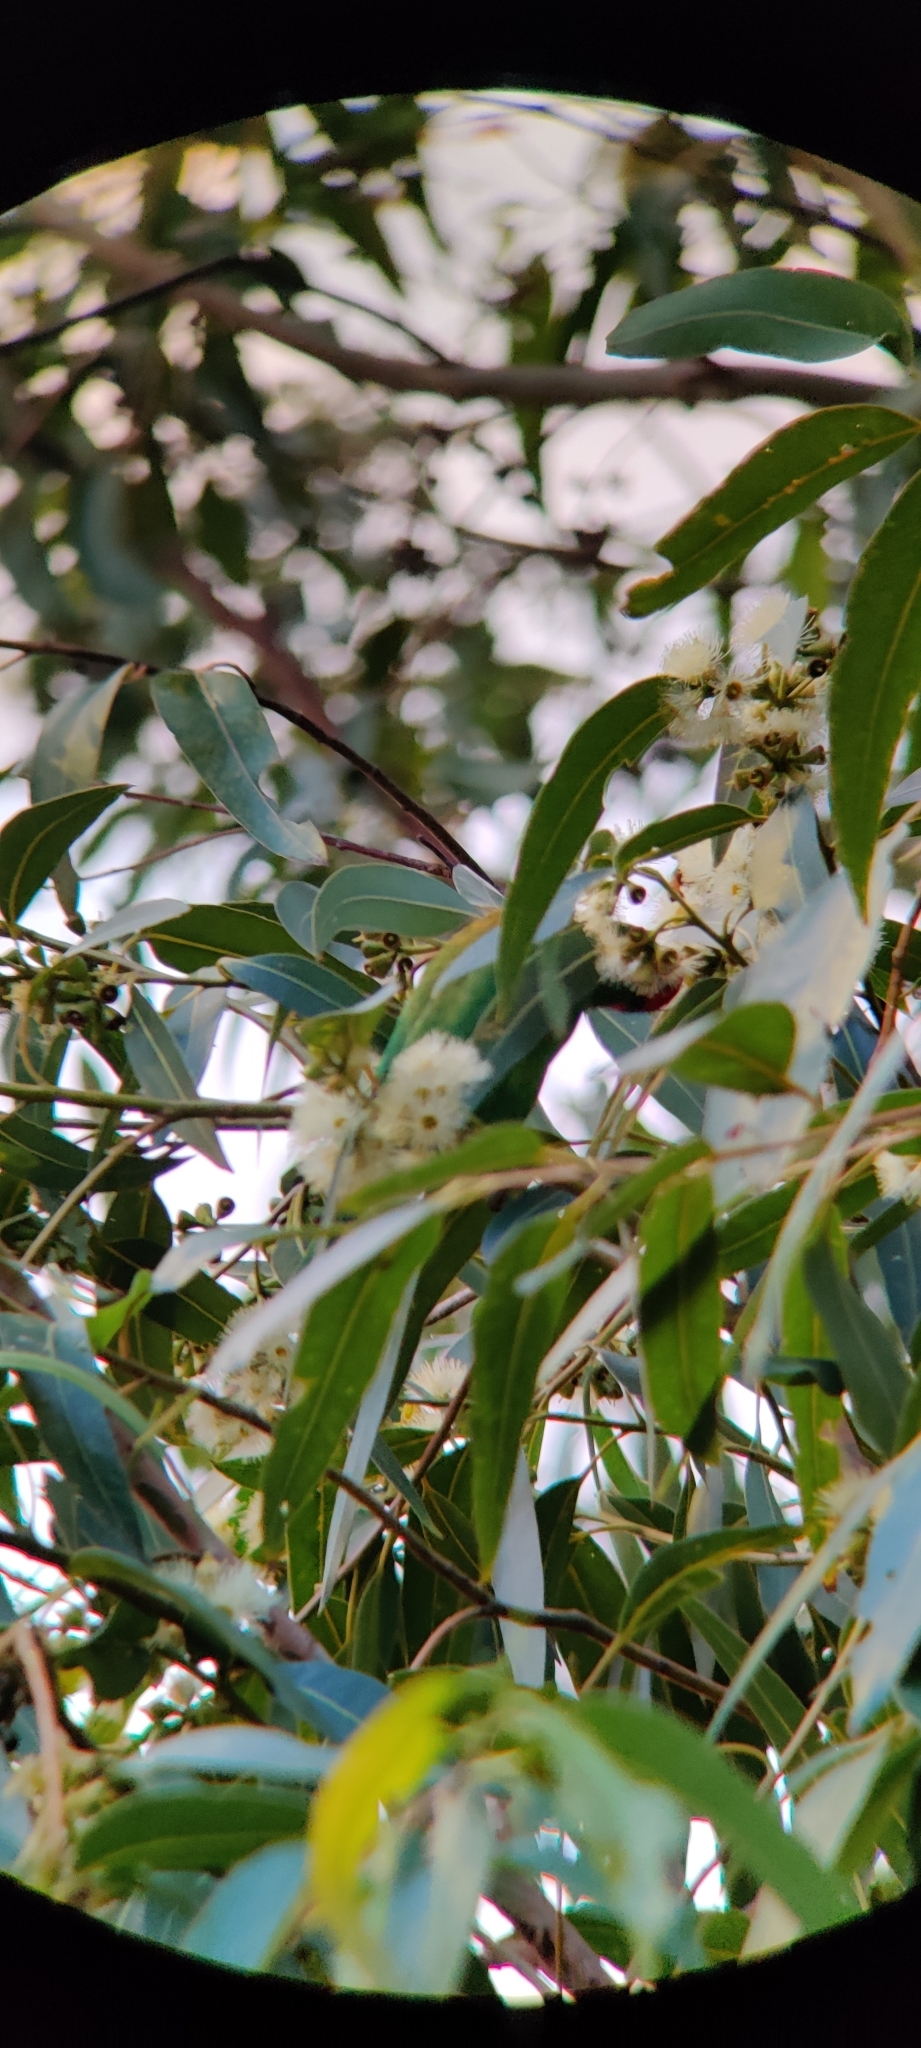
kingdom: Plantae
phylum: Tracheophyta
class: Magnoliopsida
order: Myrtales
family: Myrtaceae
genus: Eucalyptus
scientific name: Eucalyptus saligna
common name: Blue gum
